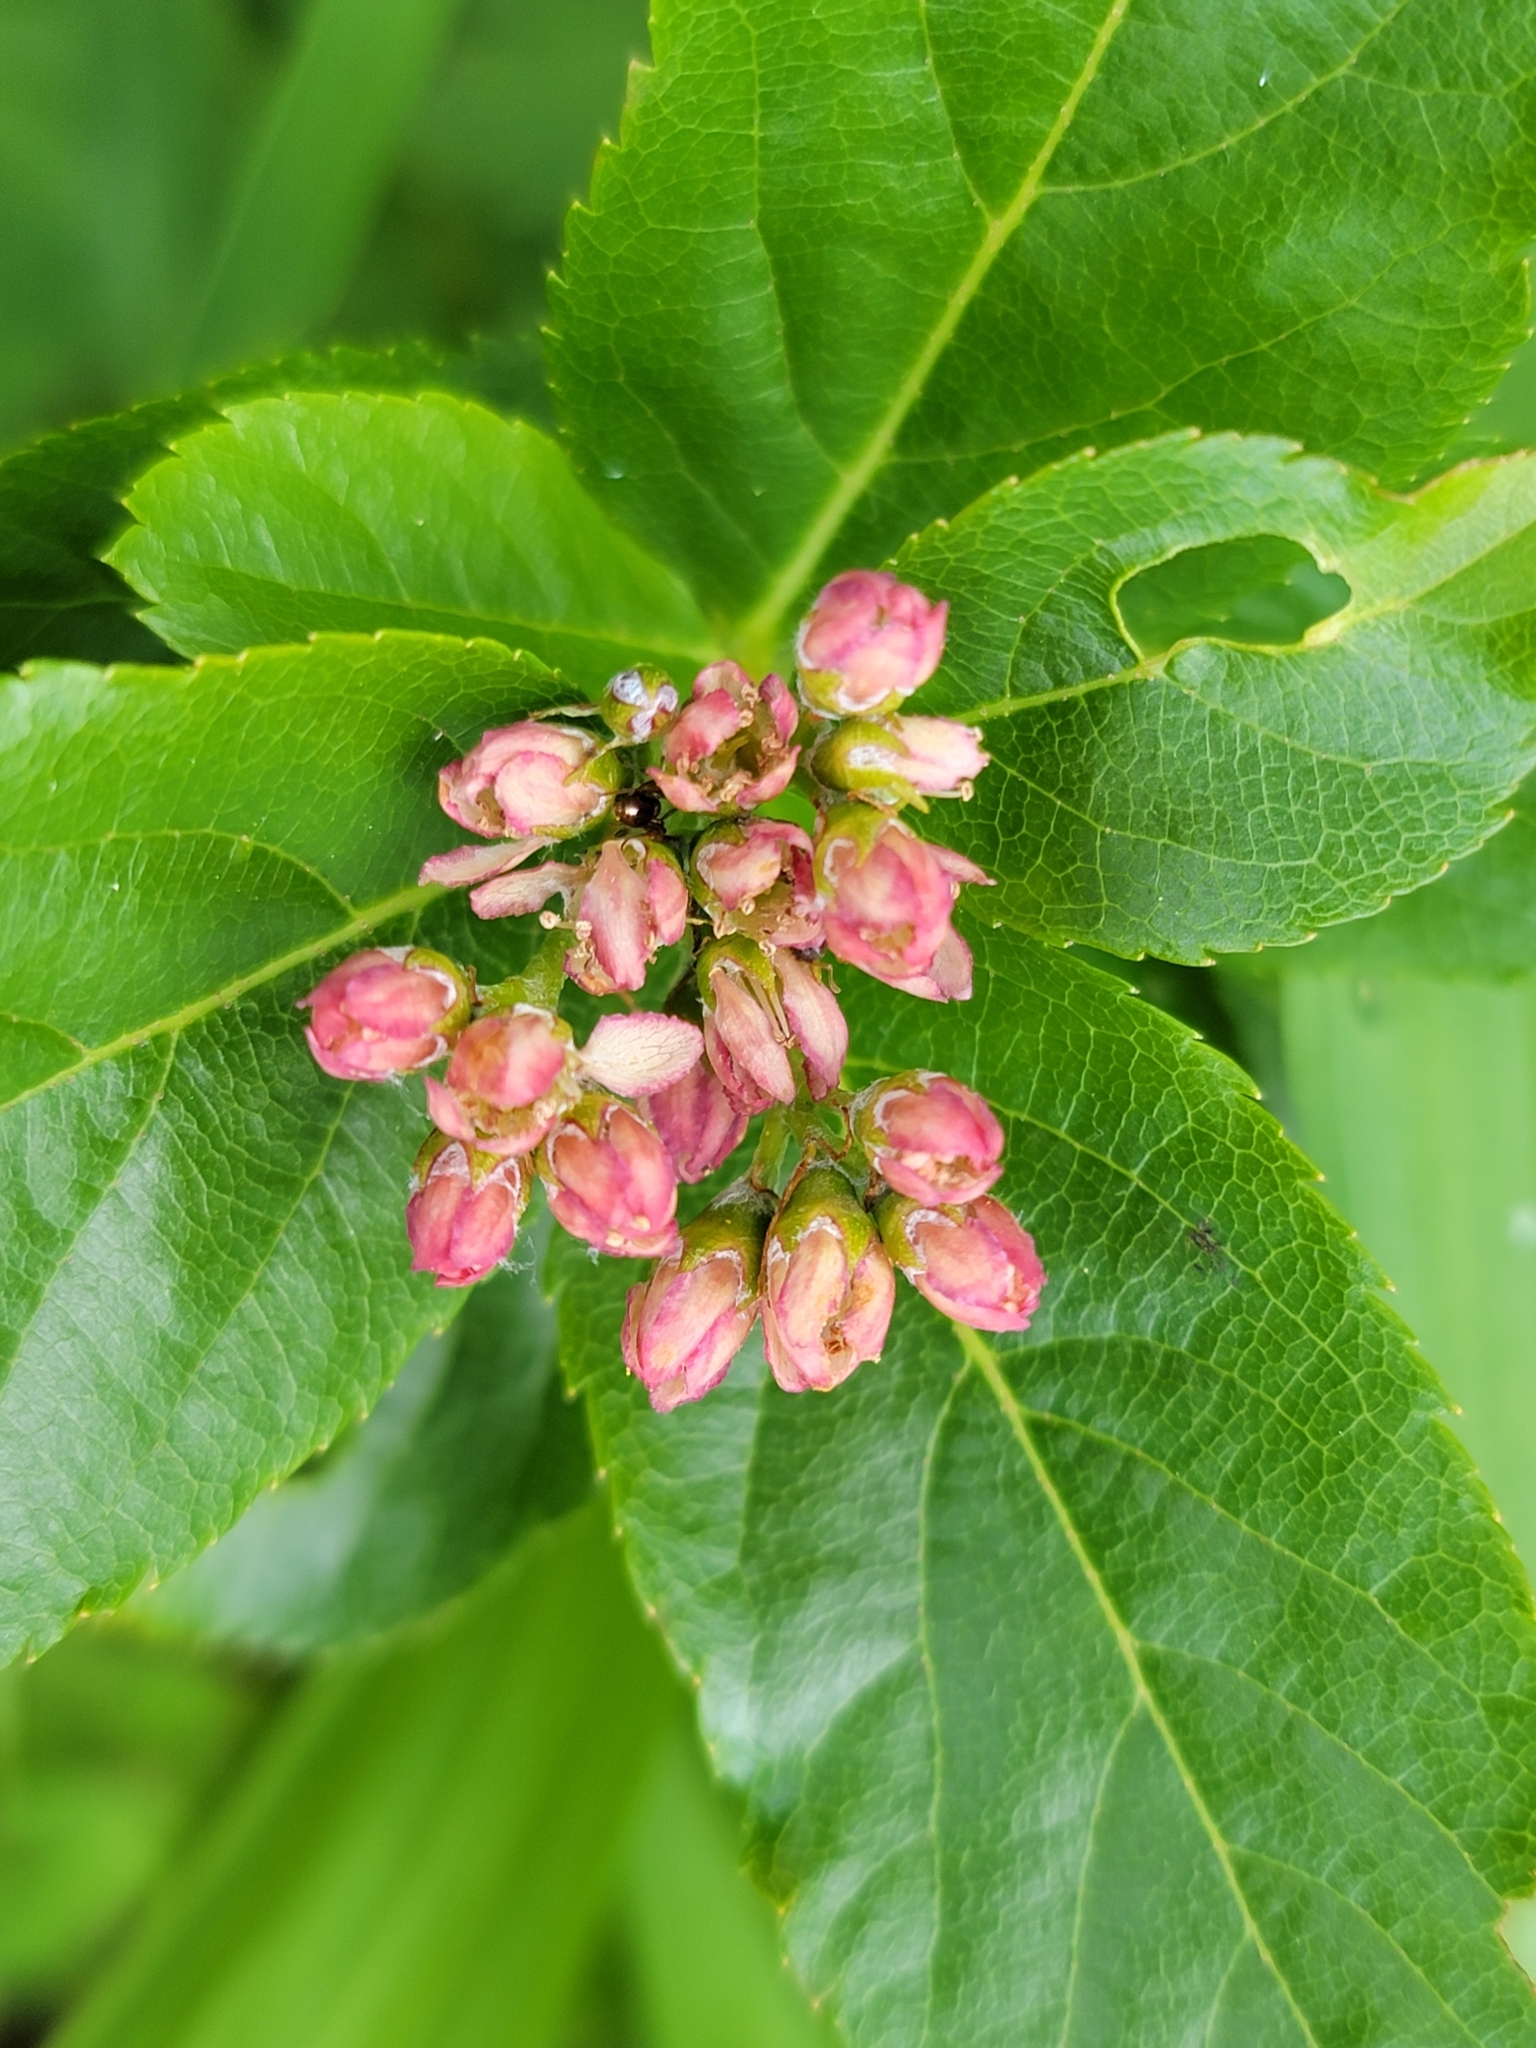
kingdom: Plantae
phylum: Tracheophyta
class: Magnoliopsida
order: Rosales
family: Rosaceae
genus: Chamaemespilus
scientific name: Chamaemespilus alpina
